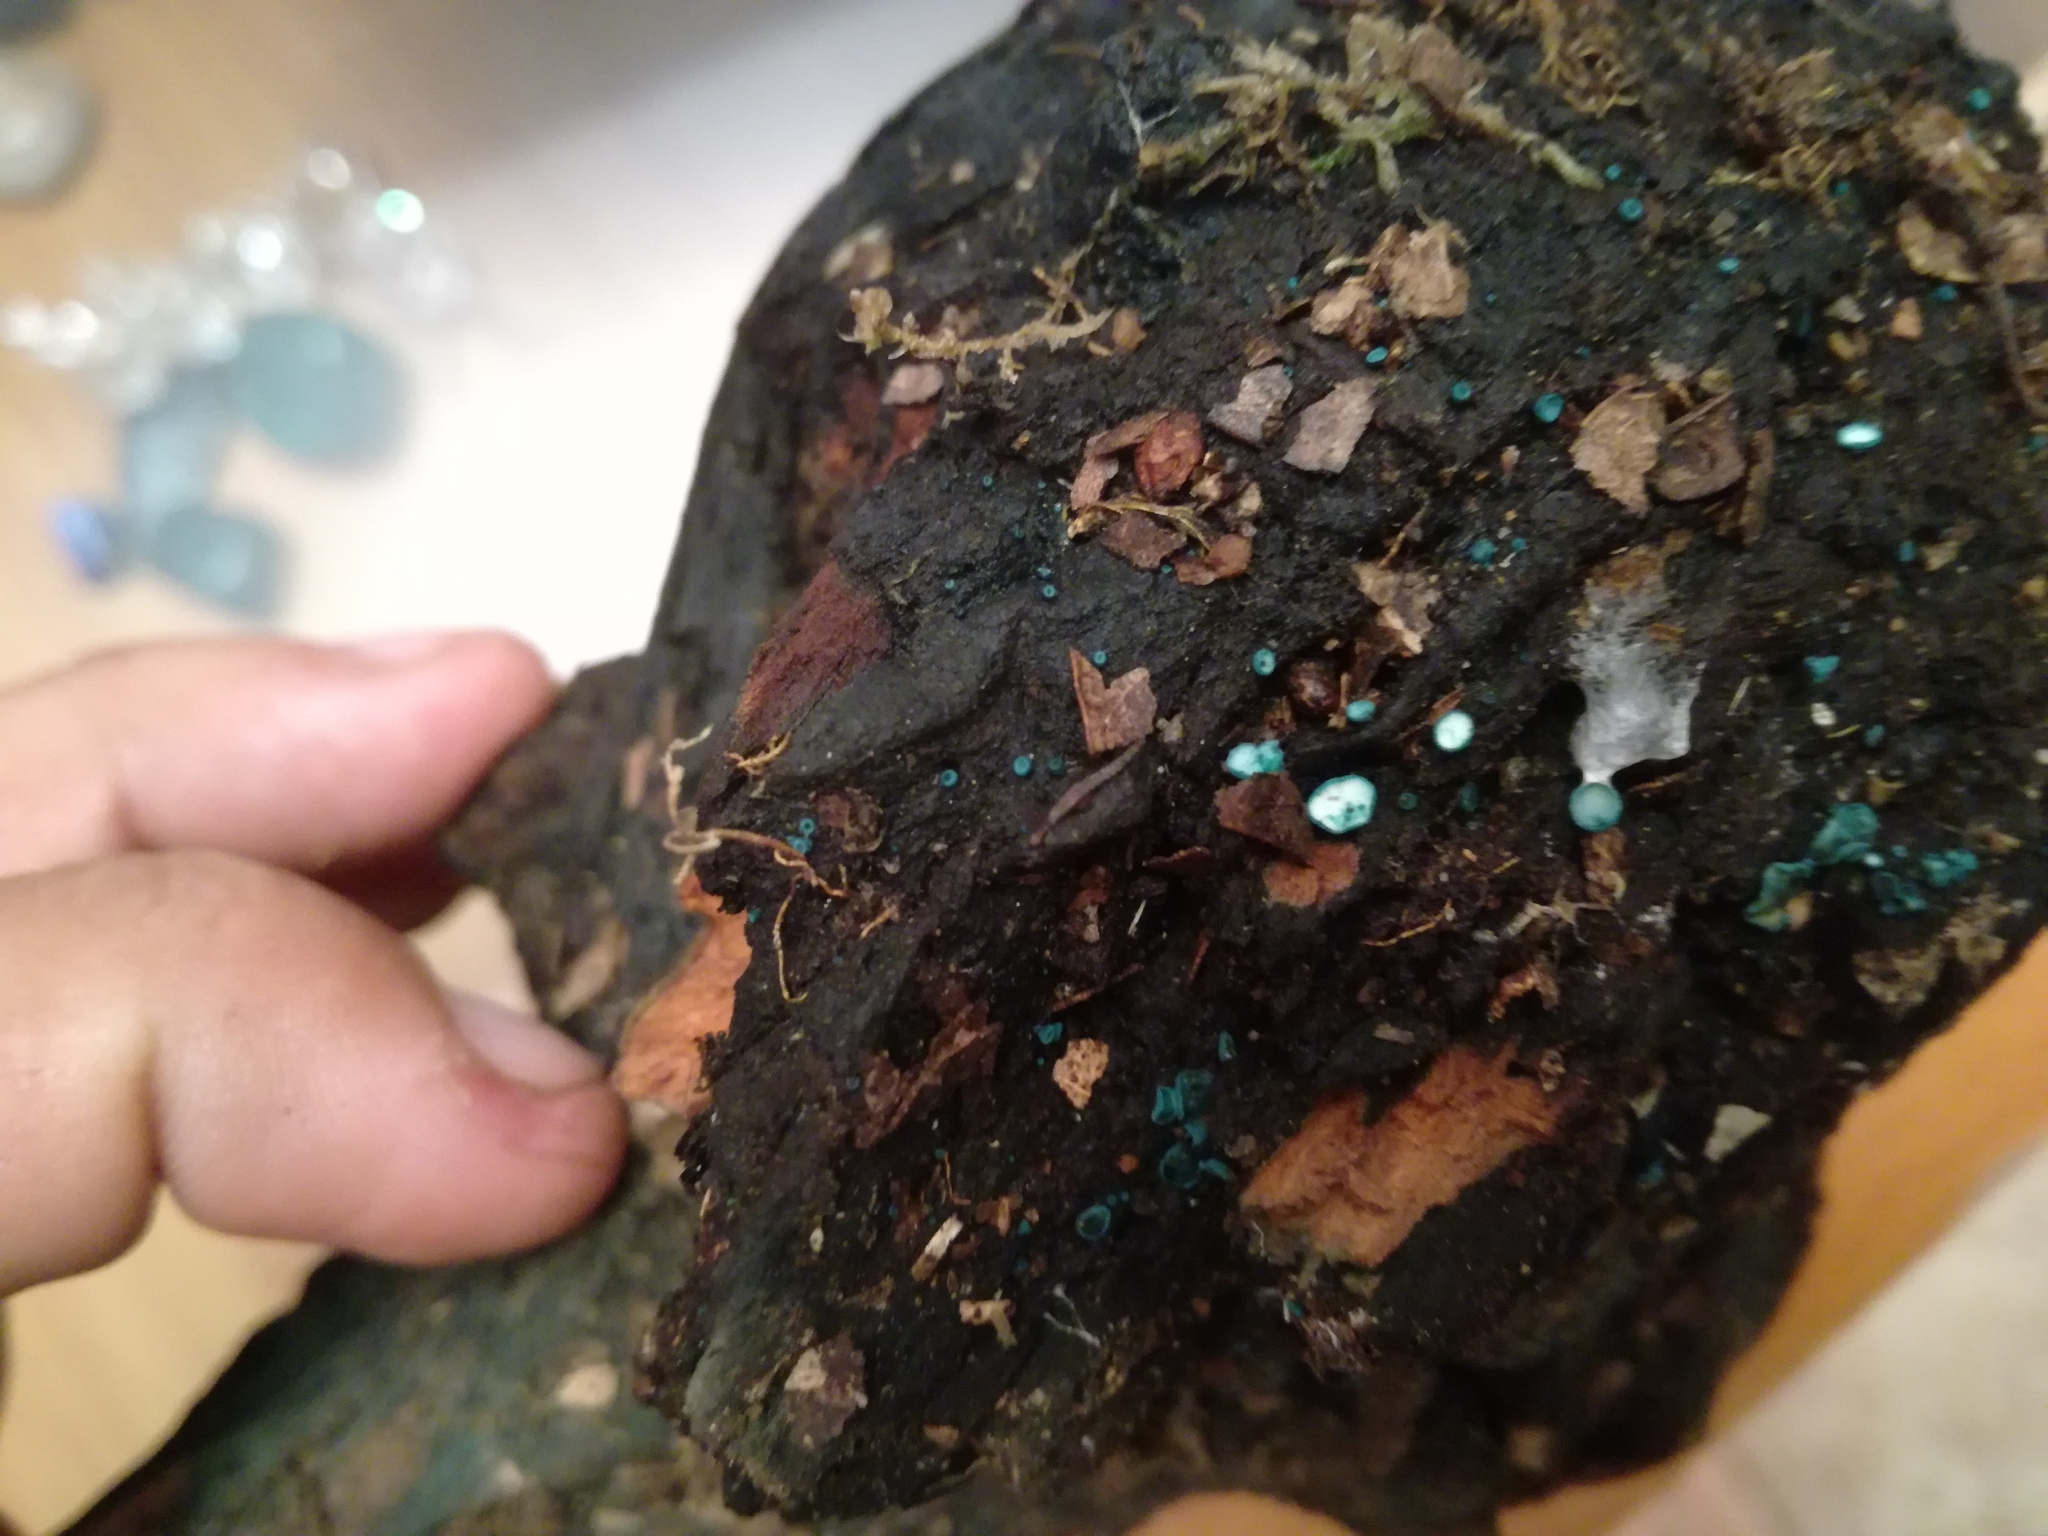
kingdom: Fungi
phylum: Ascomycota
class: Leotiomycetes
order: Helotiales
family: Chlorociboriaceae
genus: Chlorociboria
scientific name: Chlorociboria aeruginosa
